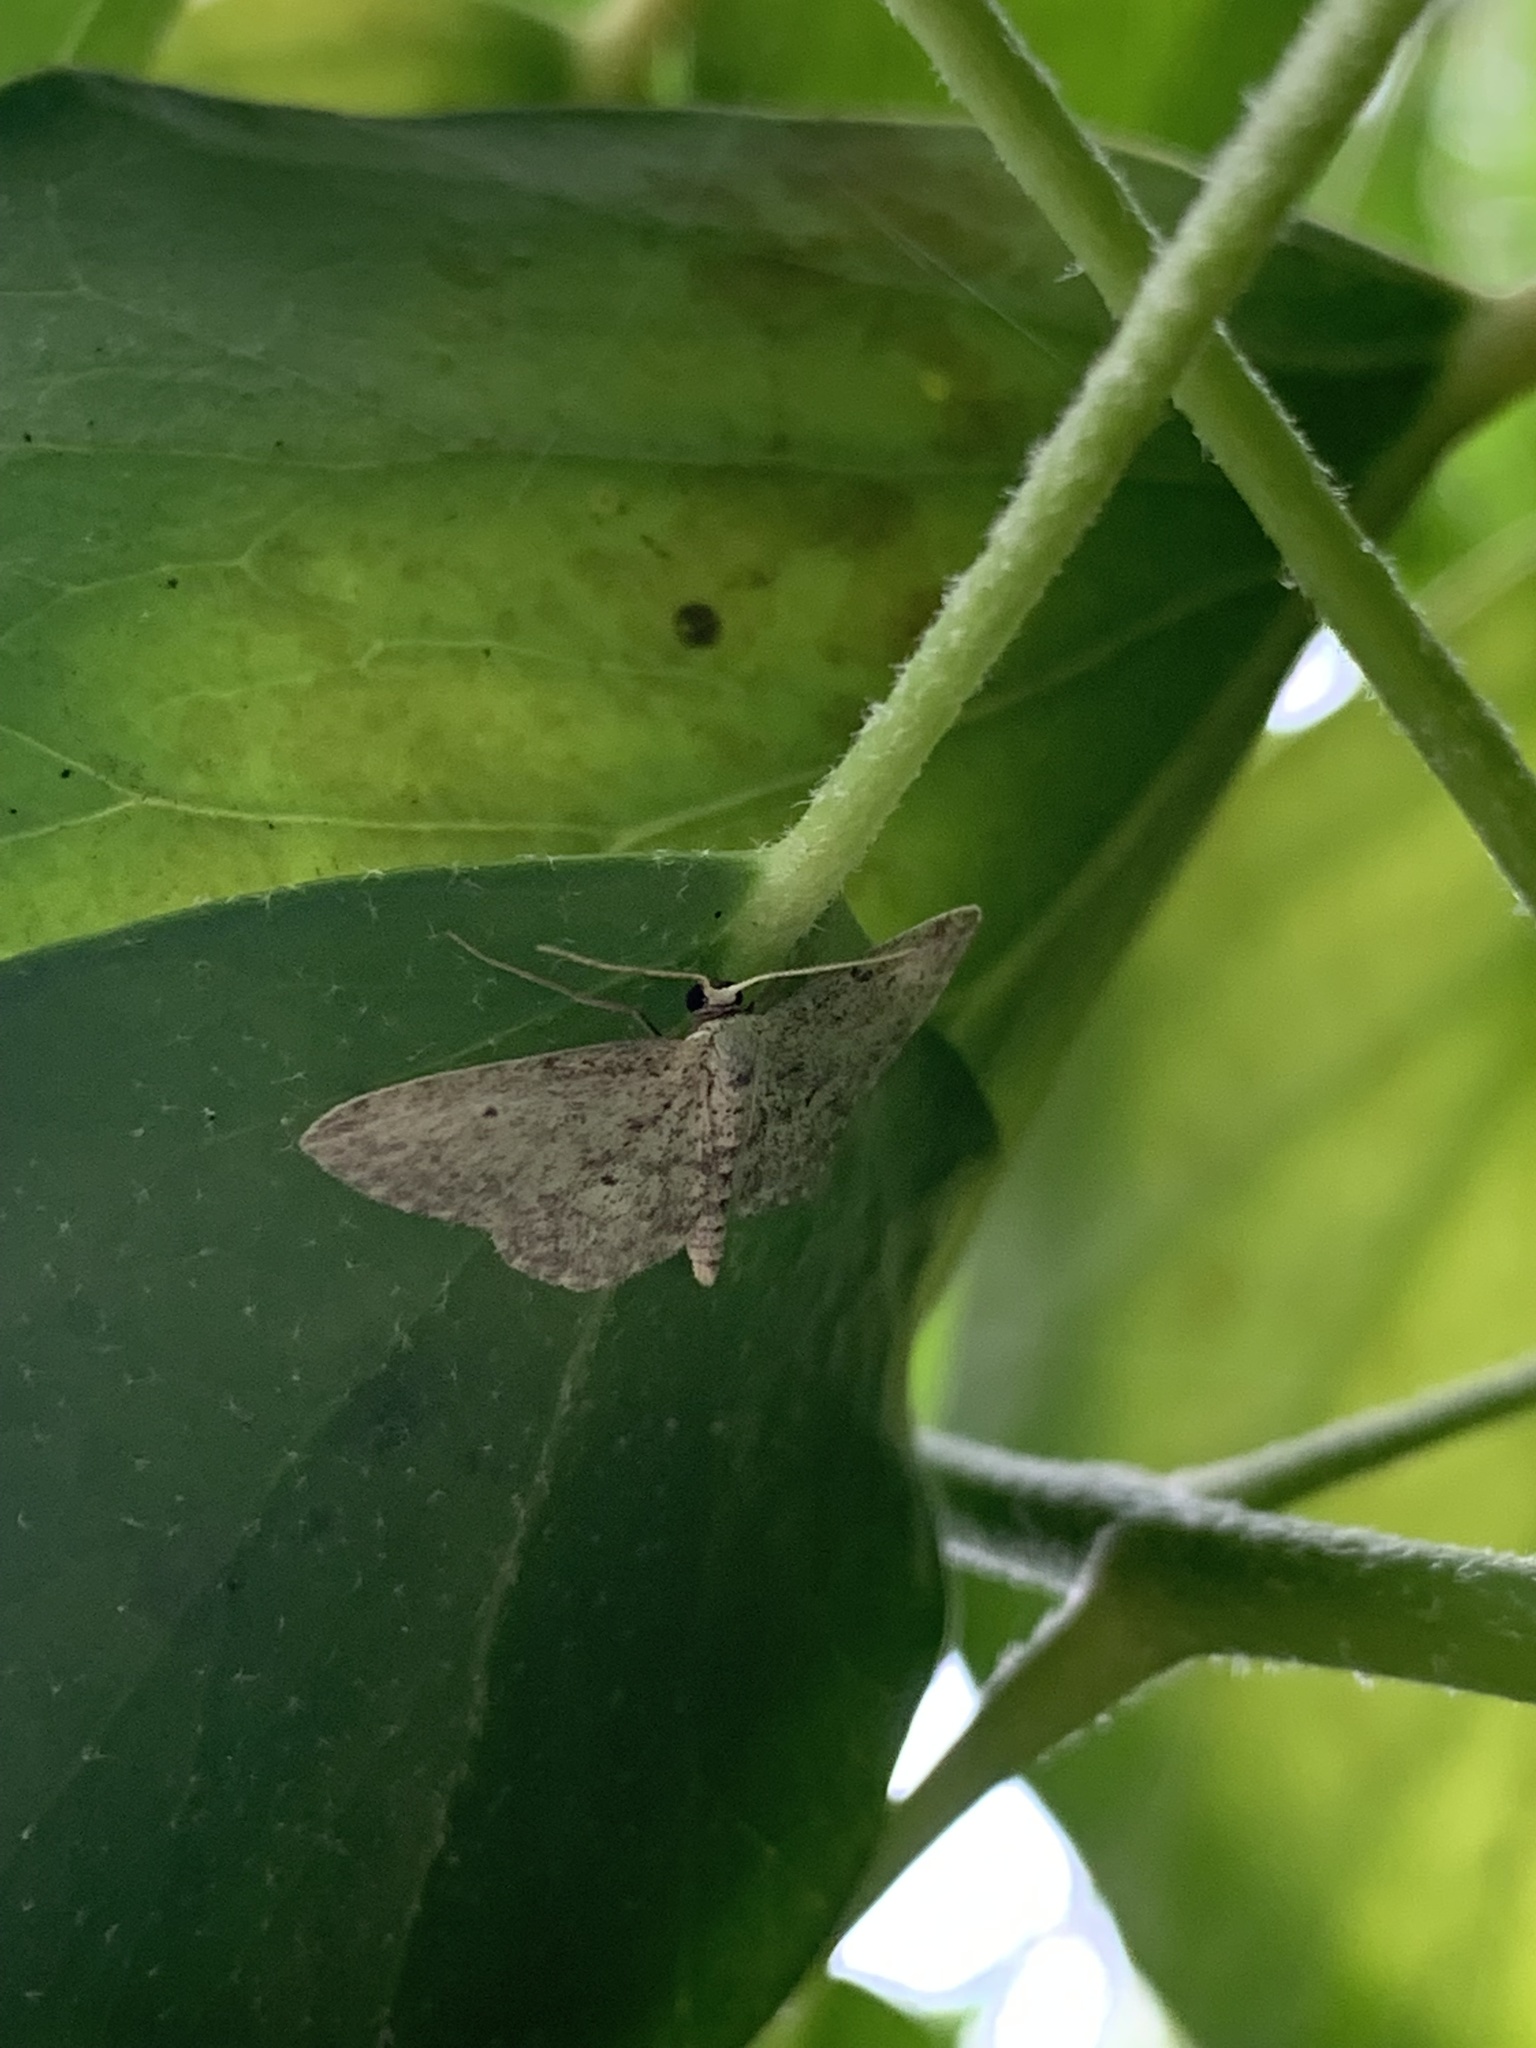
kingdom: Animalia
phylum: Arthropoda
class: Insecta
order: Lepidoptera
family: Geometridae
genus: Idaea
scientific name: Idaea seriata
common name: Small dusty wave
